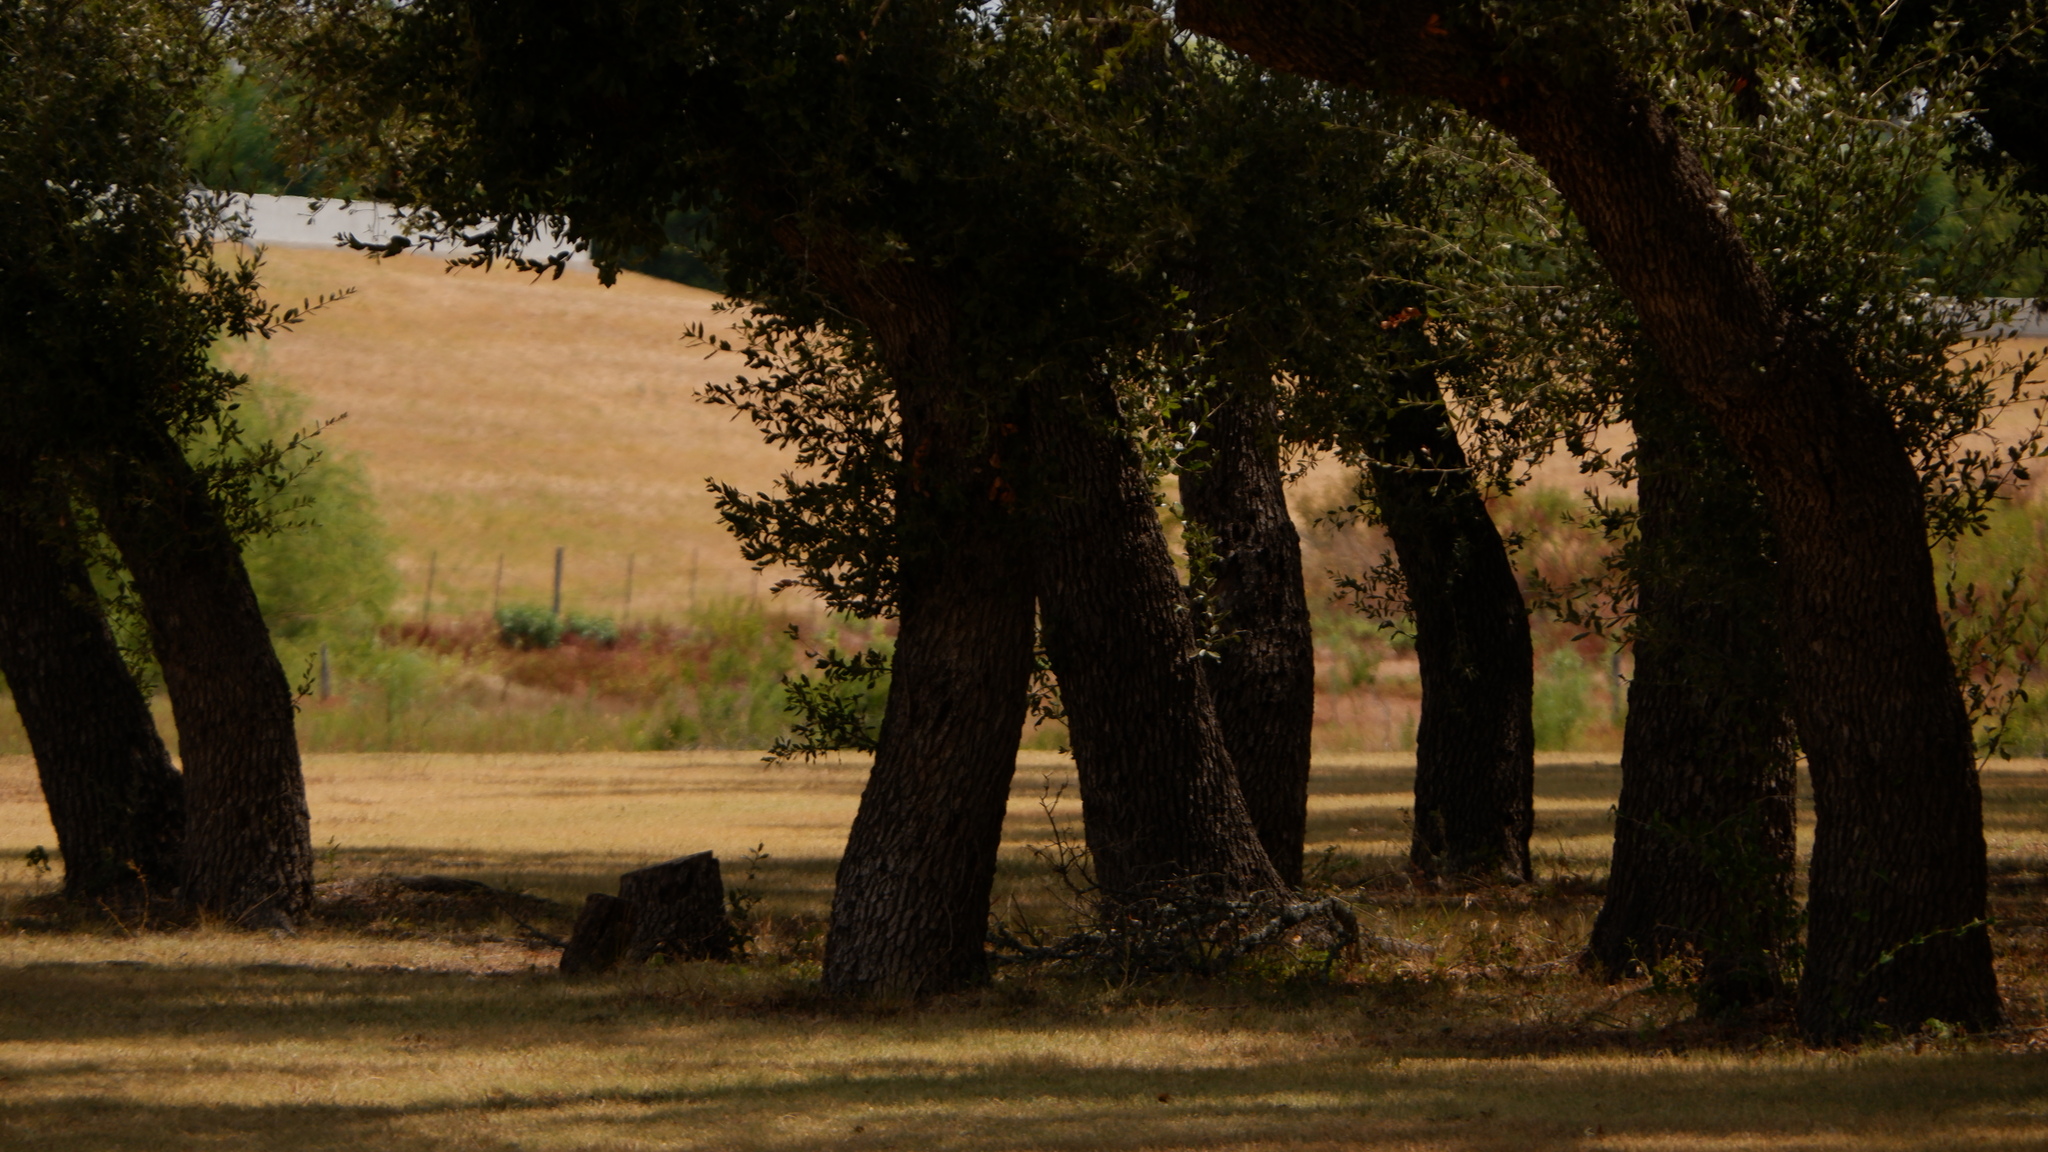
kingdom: Plantae
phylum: Tracheophyta
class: Magnoliopsida
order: Fagales
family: Fagaceae
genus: Quercus
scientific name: Quercus fusiformis
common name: Texas live oak
